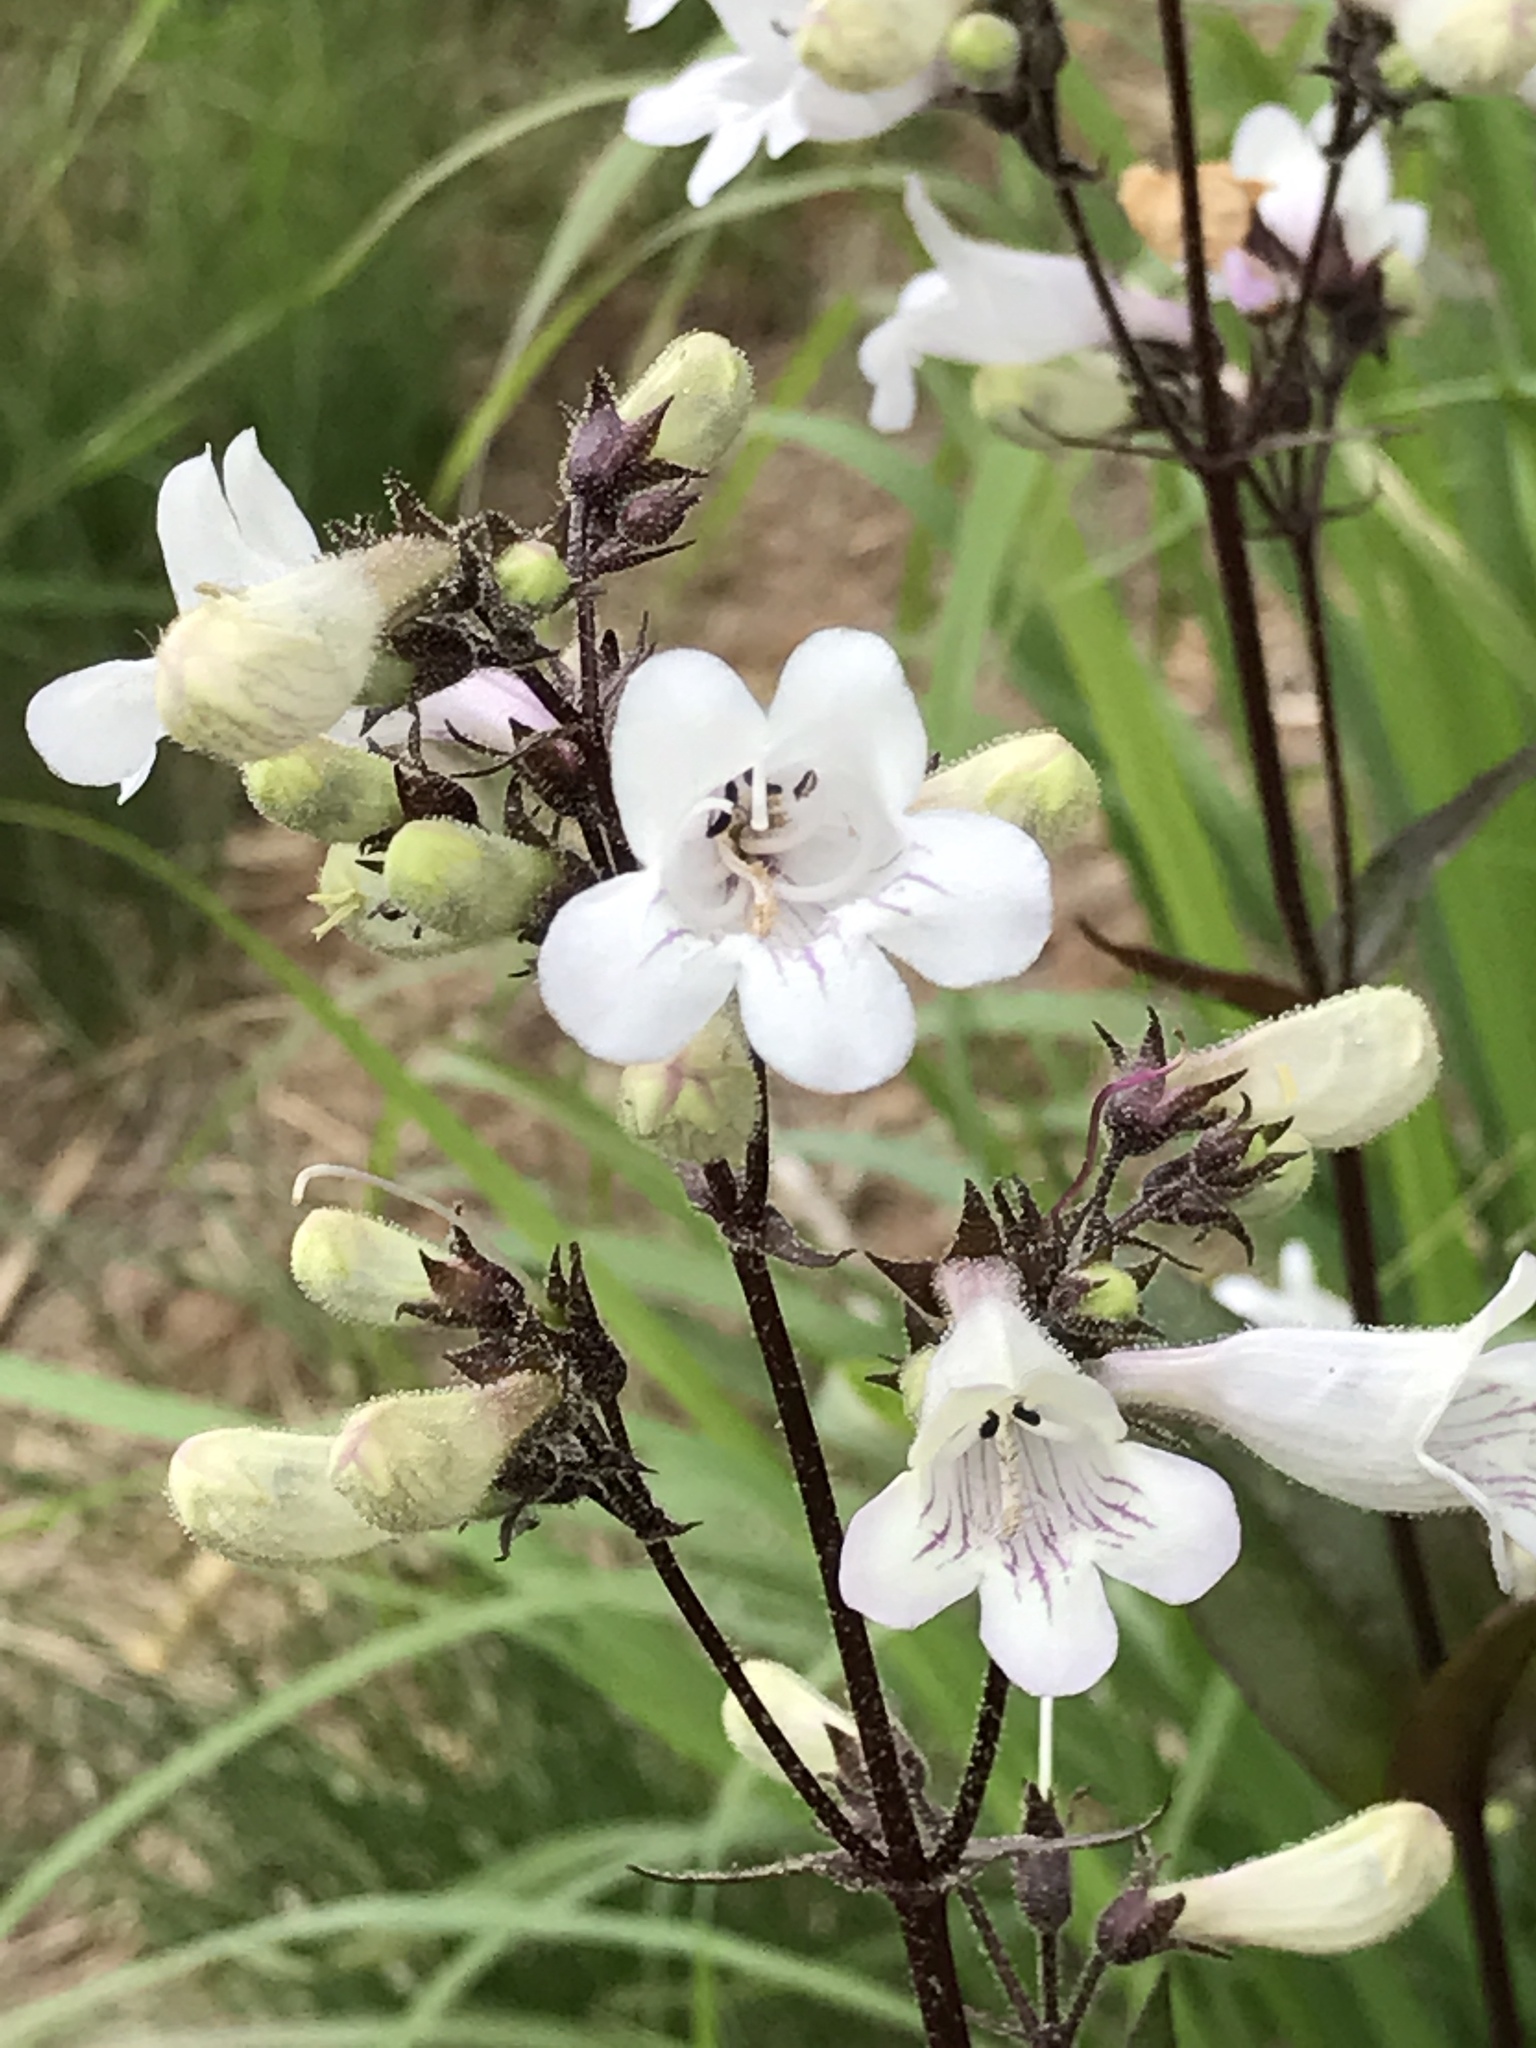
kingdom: Plantae
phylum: Tracheophyta
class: Magnoliopsida
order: Lamiales
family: Plantaginaceae
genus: Penstemon
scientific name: Penstemon digitalis
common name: Foxglove beardtongue
